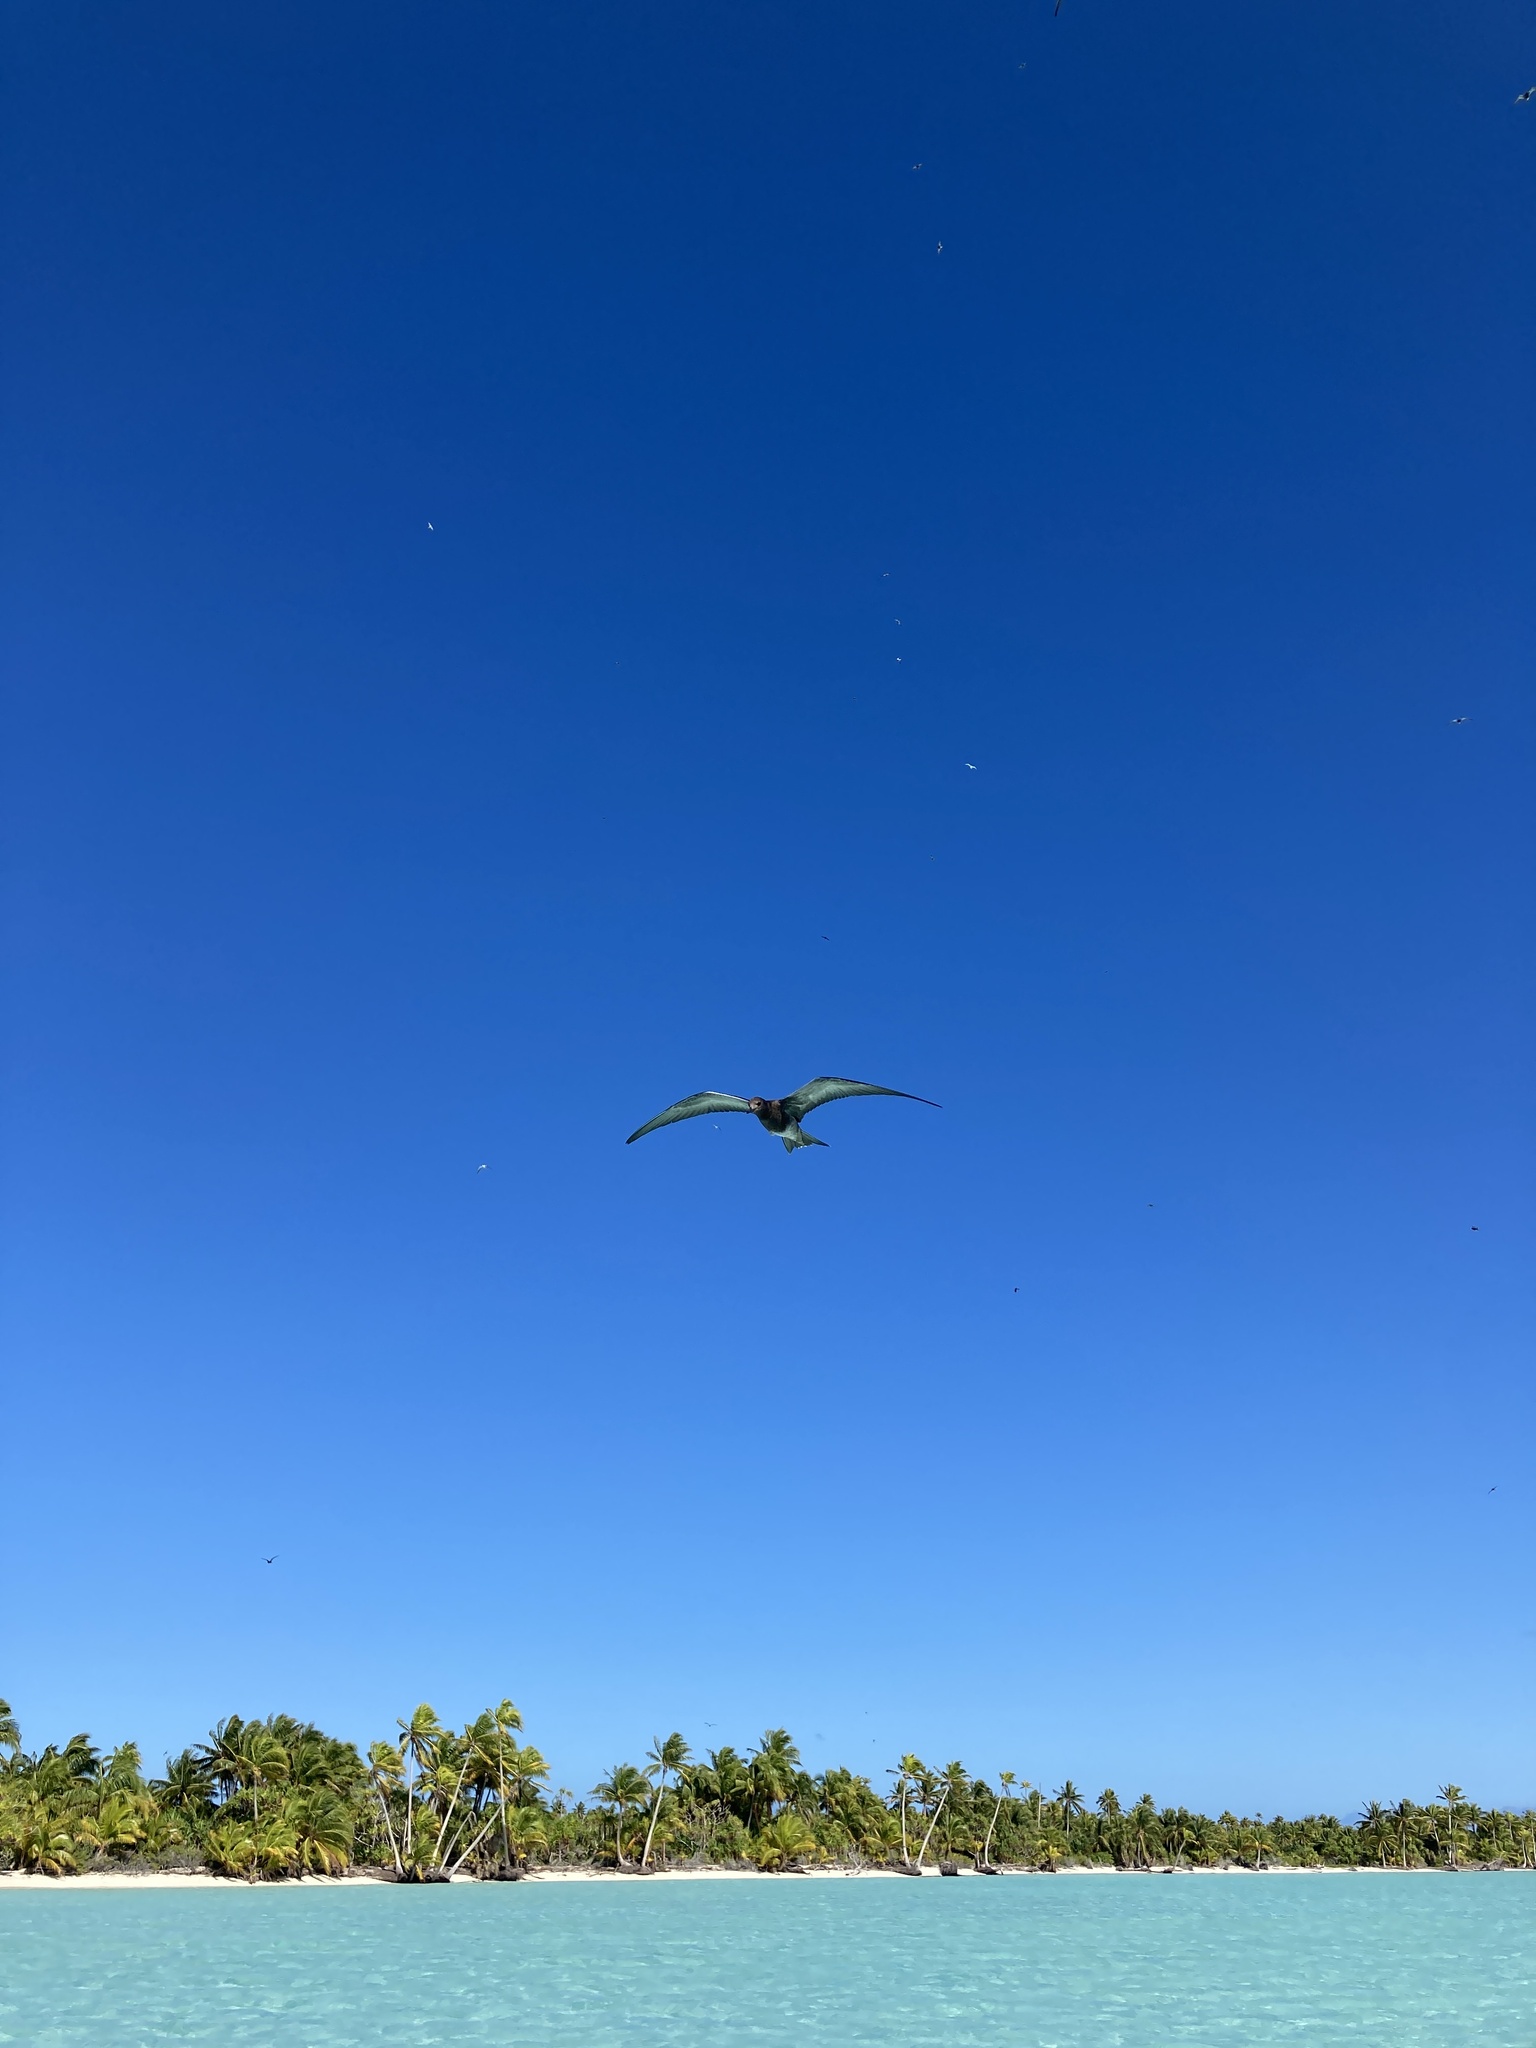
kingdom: Animalia
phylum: Chordata
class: Aves
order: Charadriiformes
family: Laridae
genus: Onychoprion
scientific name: Onychoprion fuscatus
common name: Sooty tern
